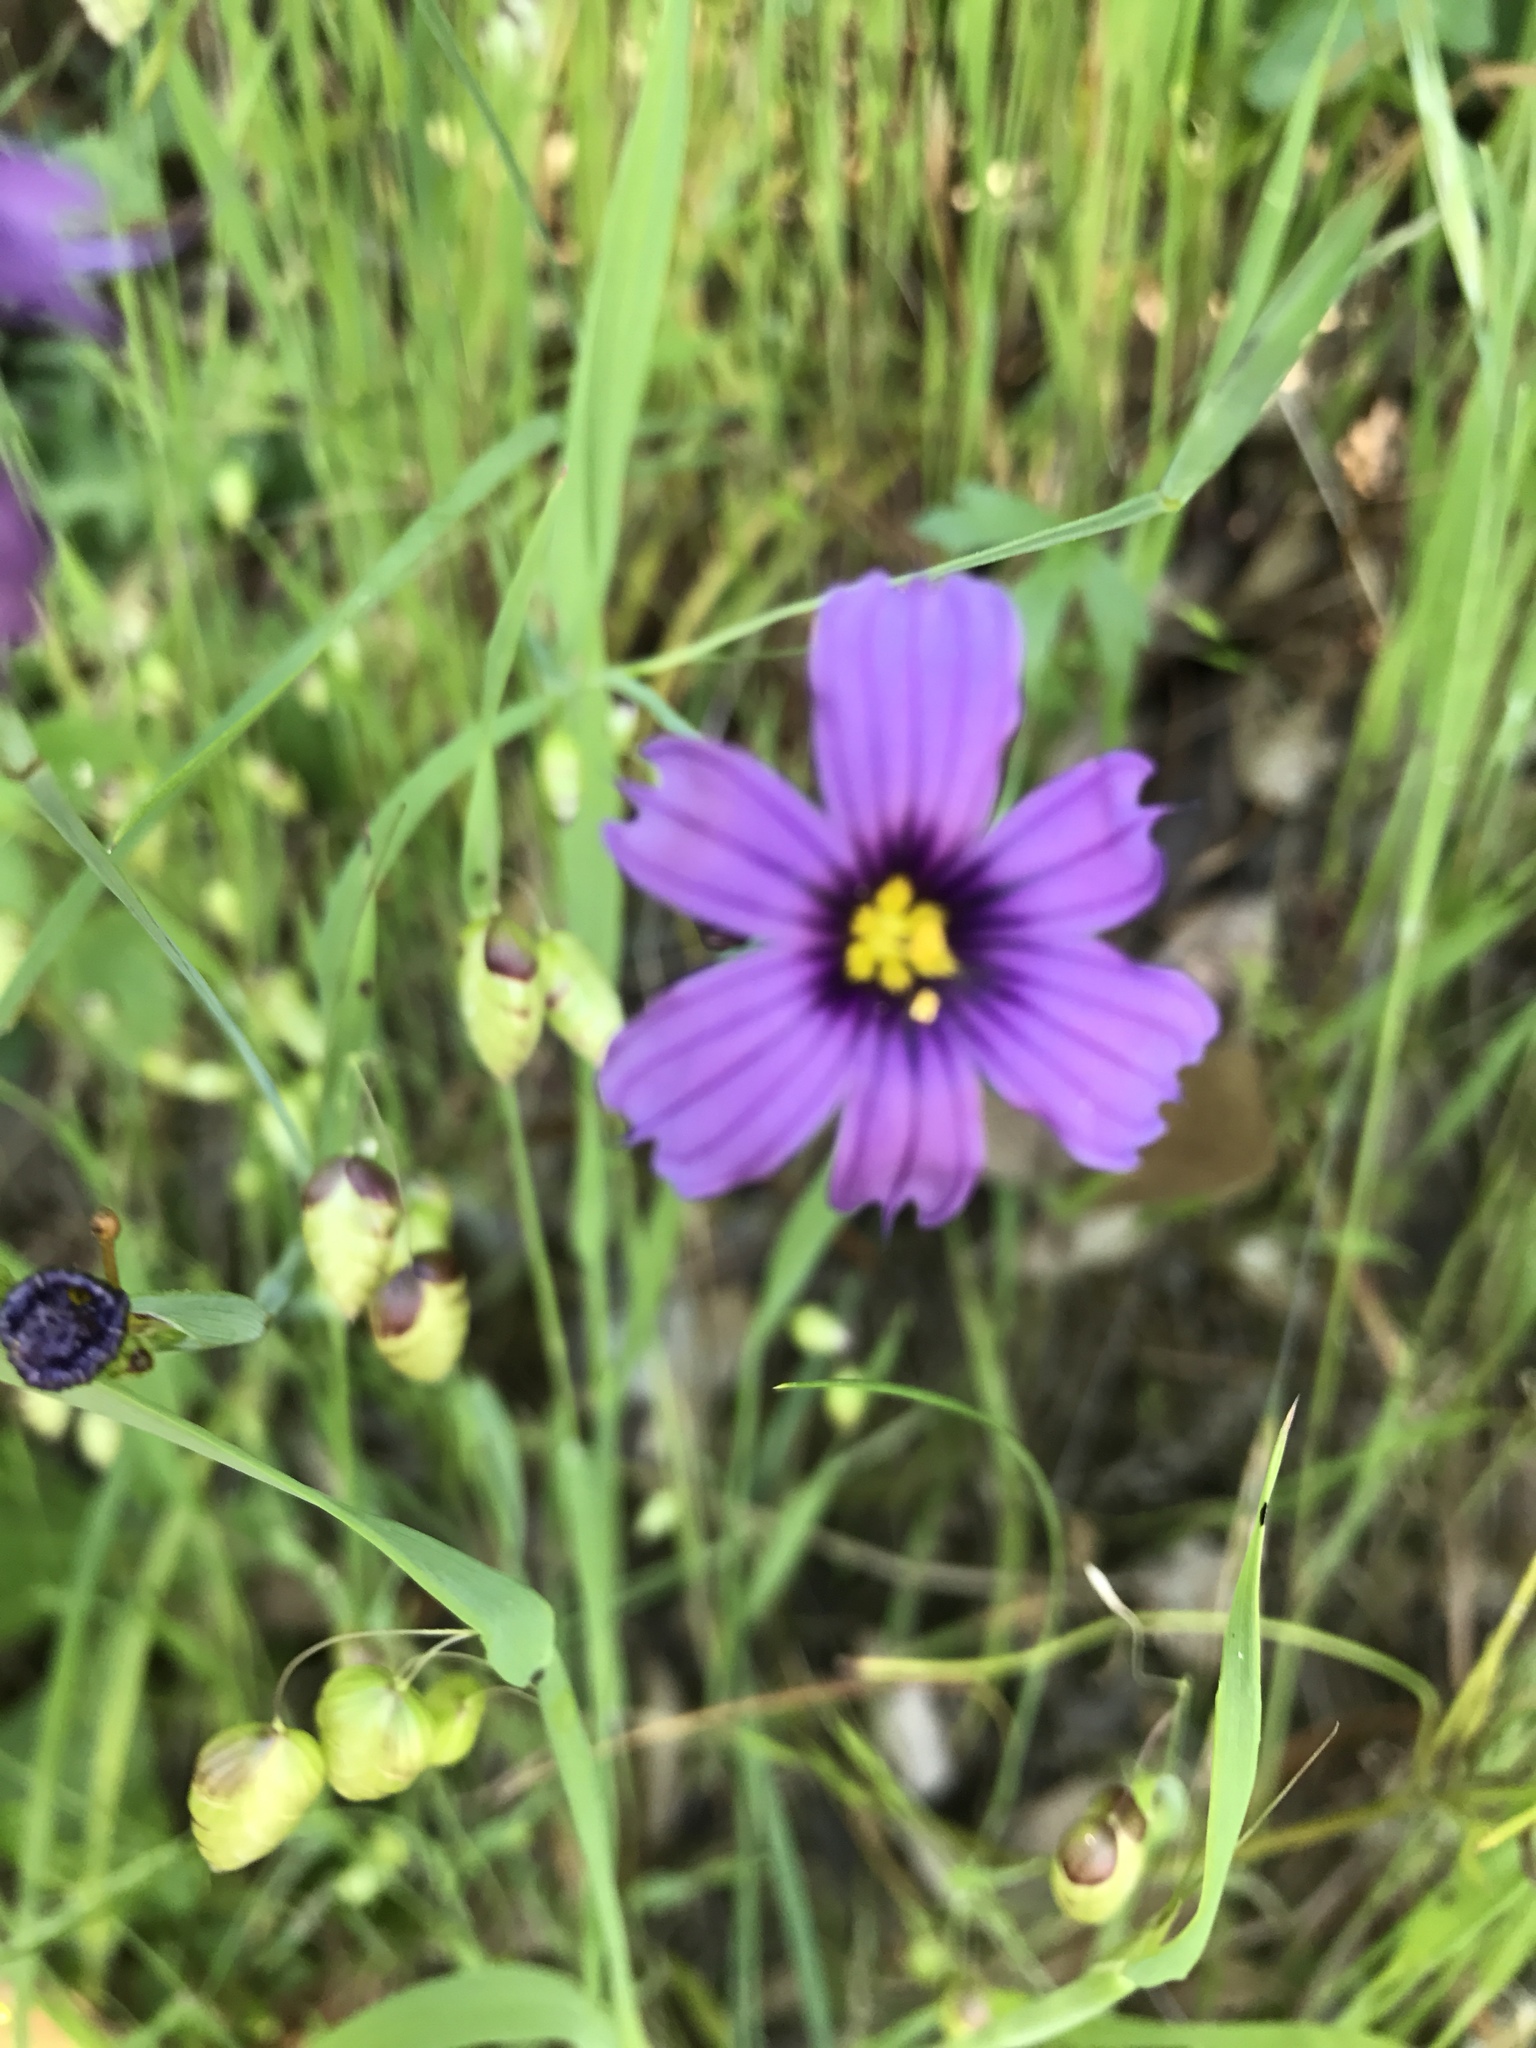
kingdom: Plantae
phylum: Tracheophyta
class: Liliopsida
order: Asparagales
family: Iridaceae
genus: Sisyrinchium
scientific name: Sisyrinchium bellum
